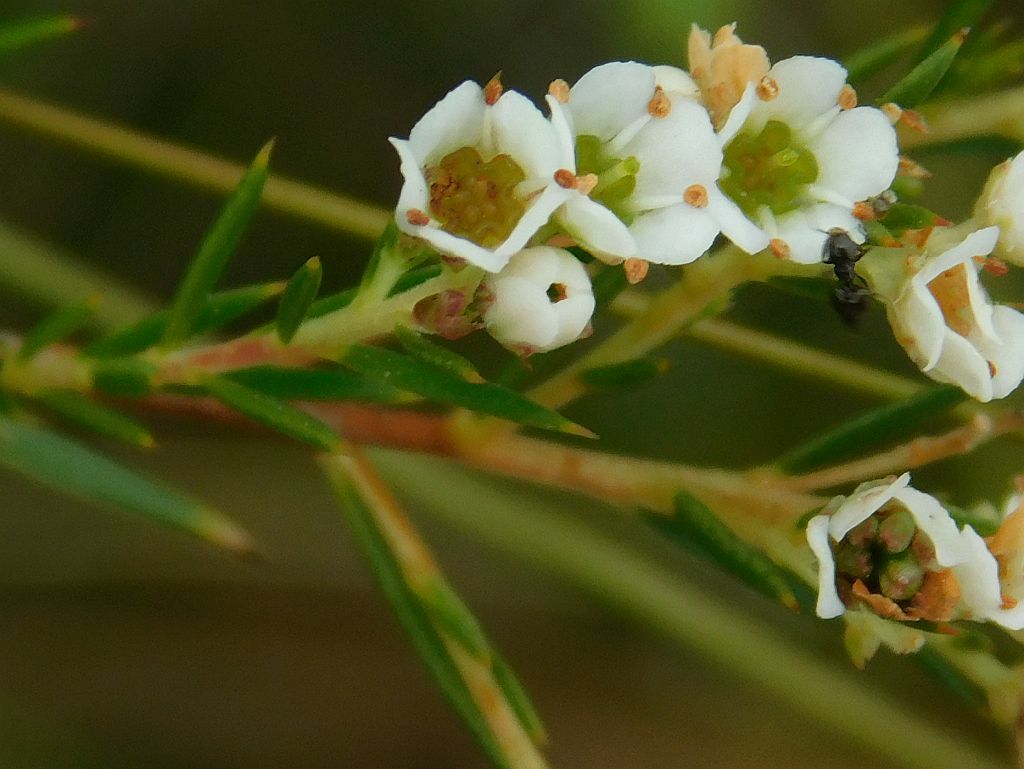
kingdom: Plantae
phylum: Tracheophyta
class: Magnoliopsida
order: Sapindales
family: Rutaceae
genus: Diosma
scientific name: Diosma hirsuta
